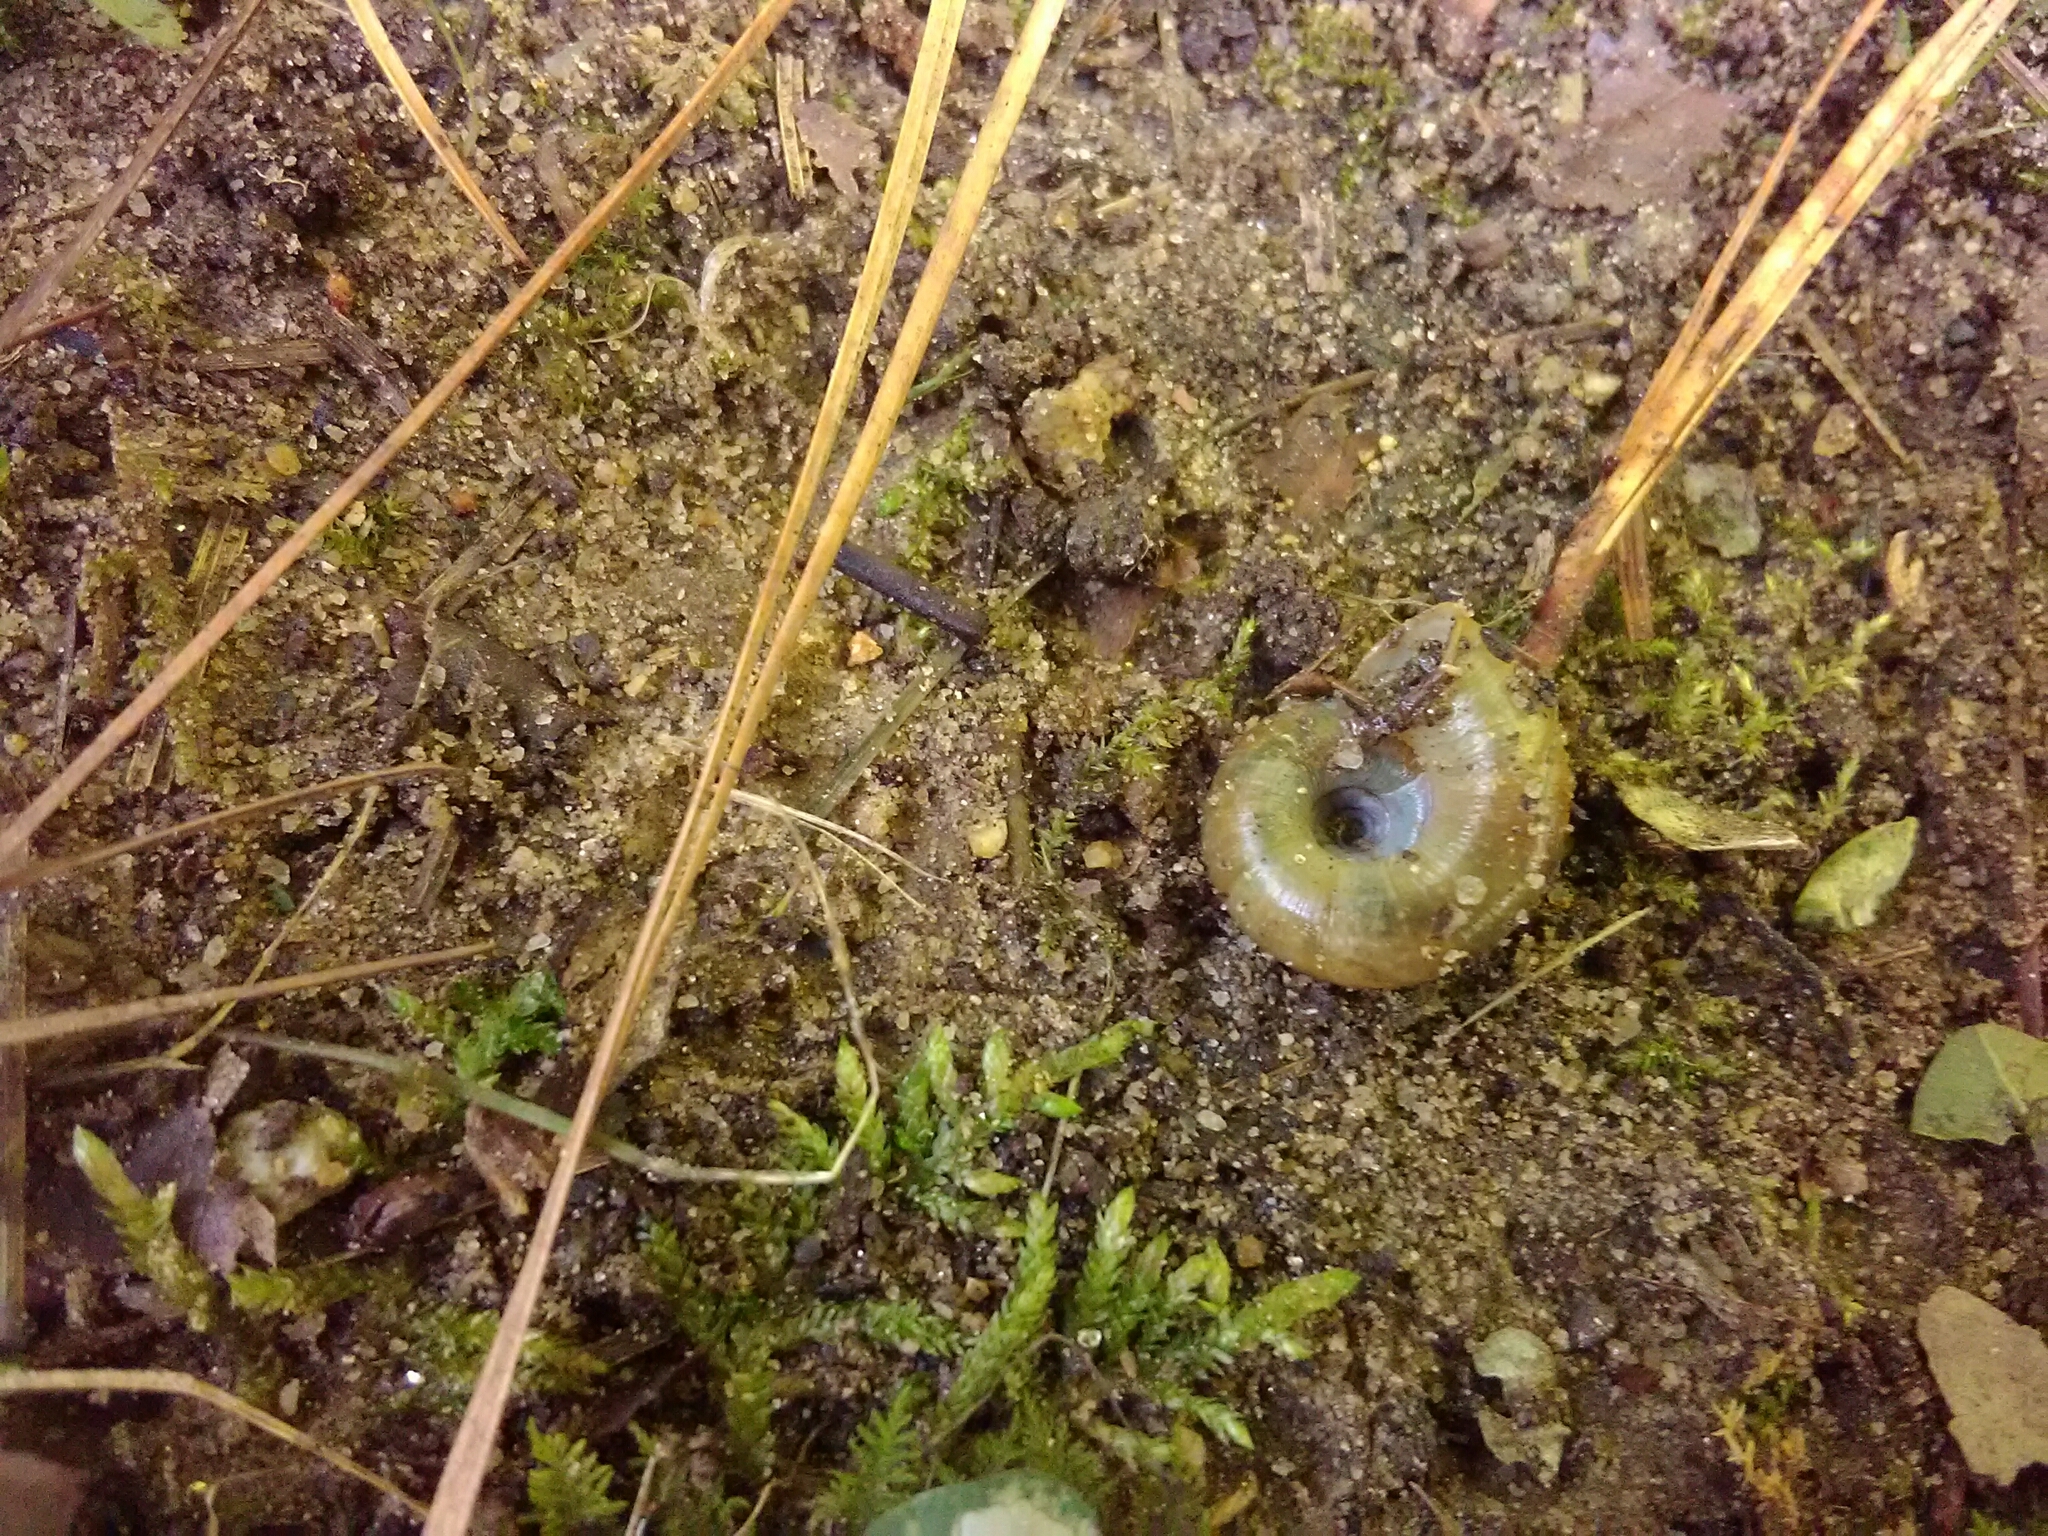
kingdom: Animalia
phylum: Mollusca
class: Gastropoda
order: Stylommatophora
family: Haplotrematidae
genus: Haplotrema
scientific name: Haplotrema concavum
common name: Gray-foot lancetooth
